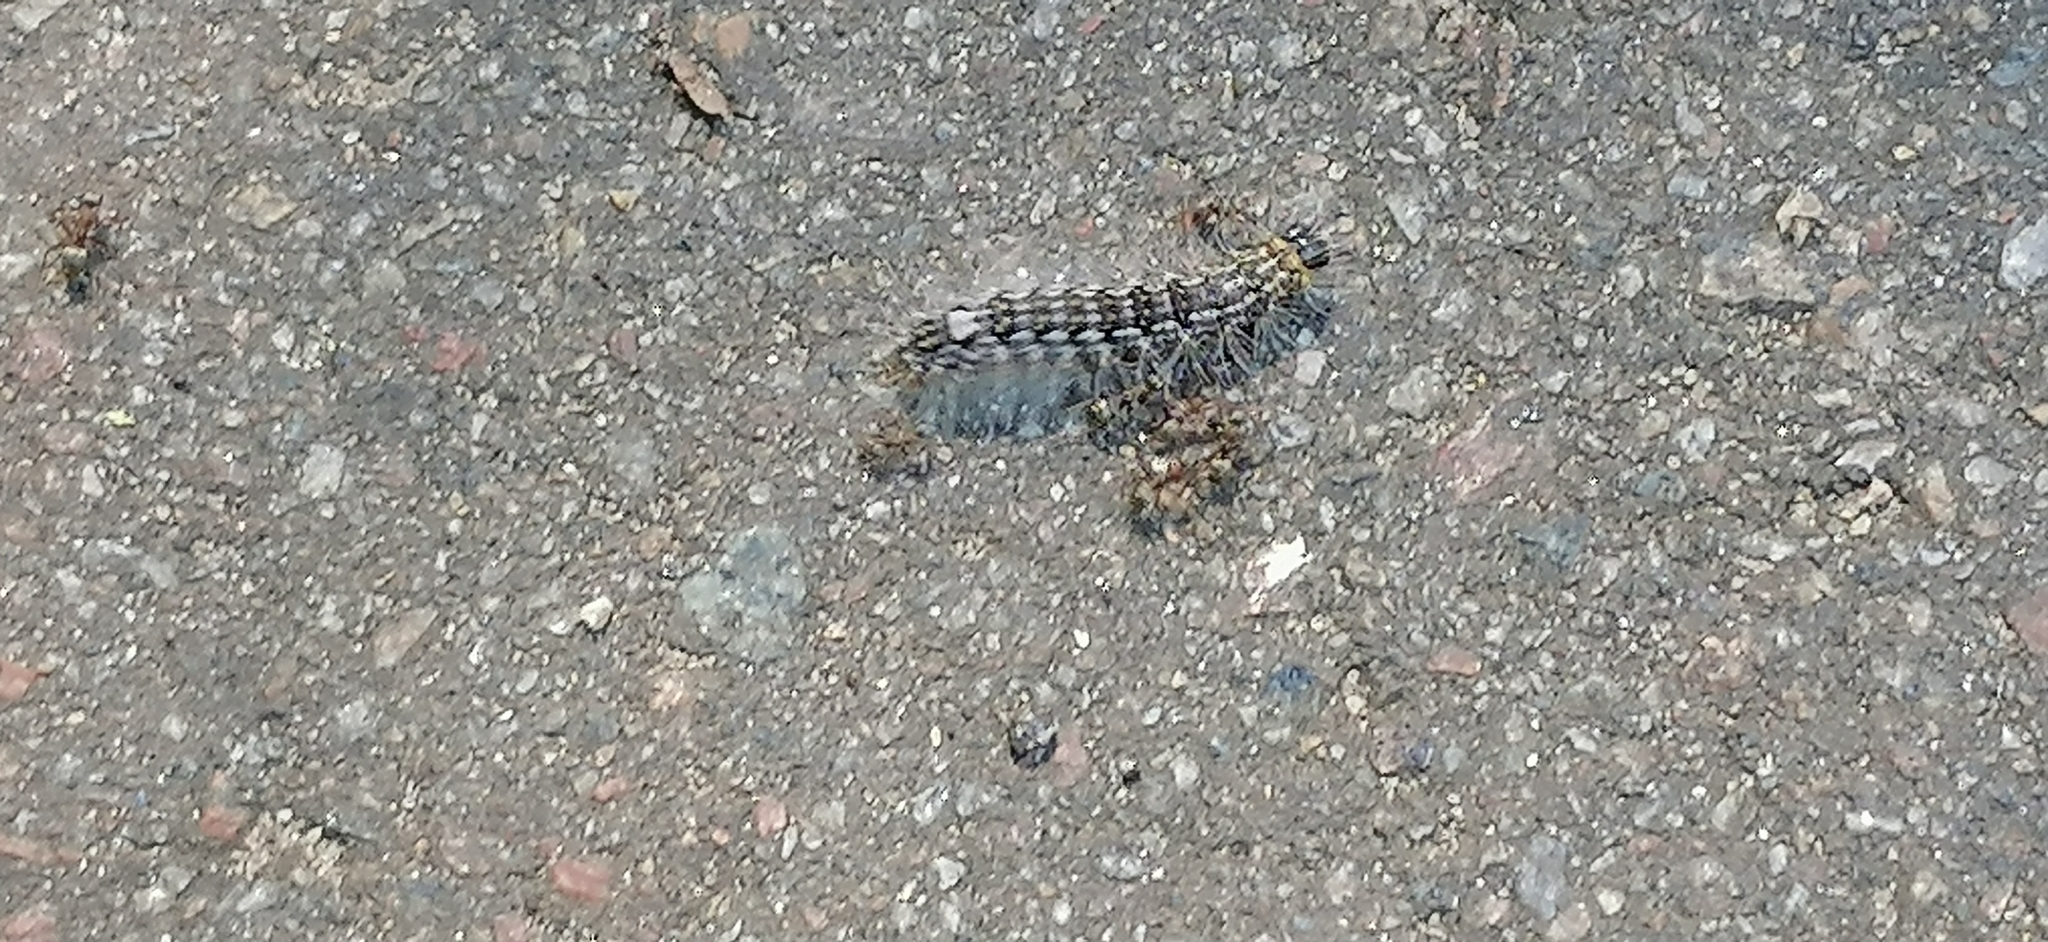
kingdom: Animalia
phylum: Arthropoda
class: Insecta
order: Lepidoptera
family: Noctuidae
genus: Acronicta
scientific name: Acronicta megacephala
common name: Poplar grey
